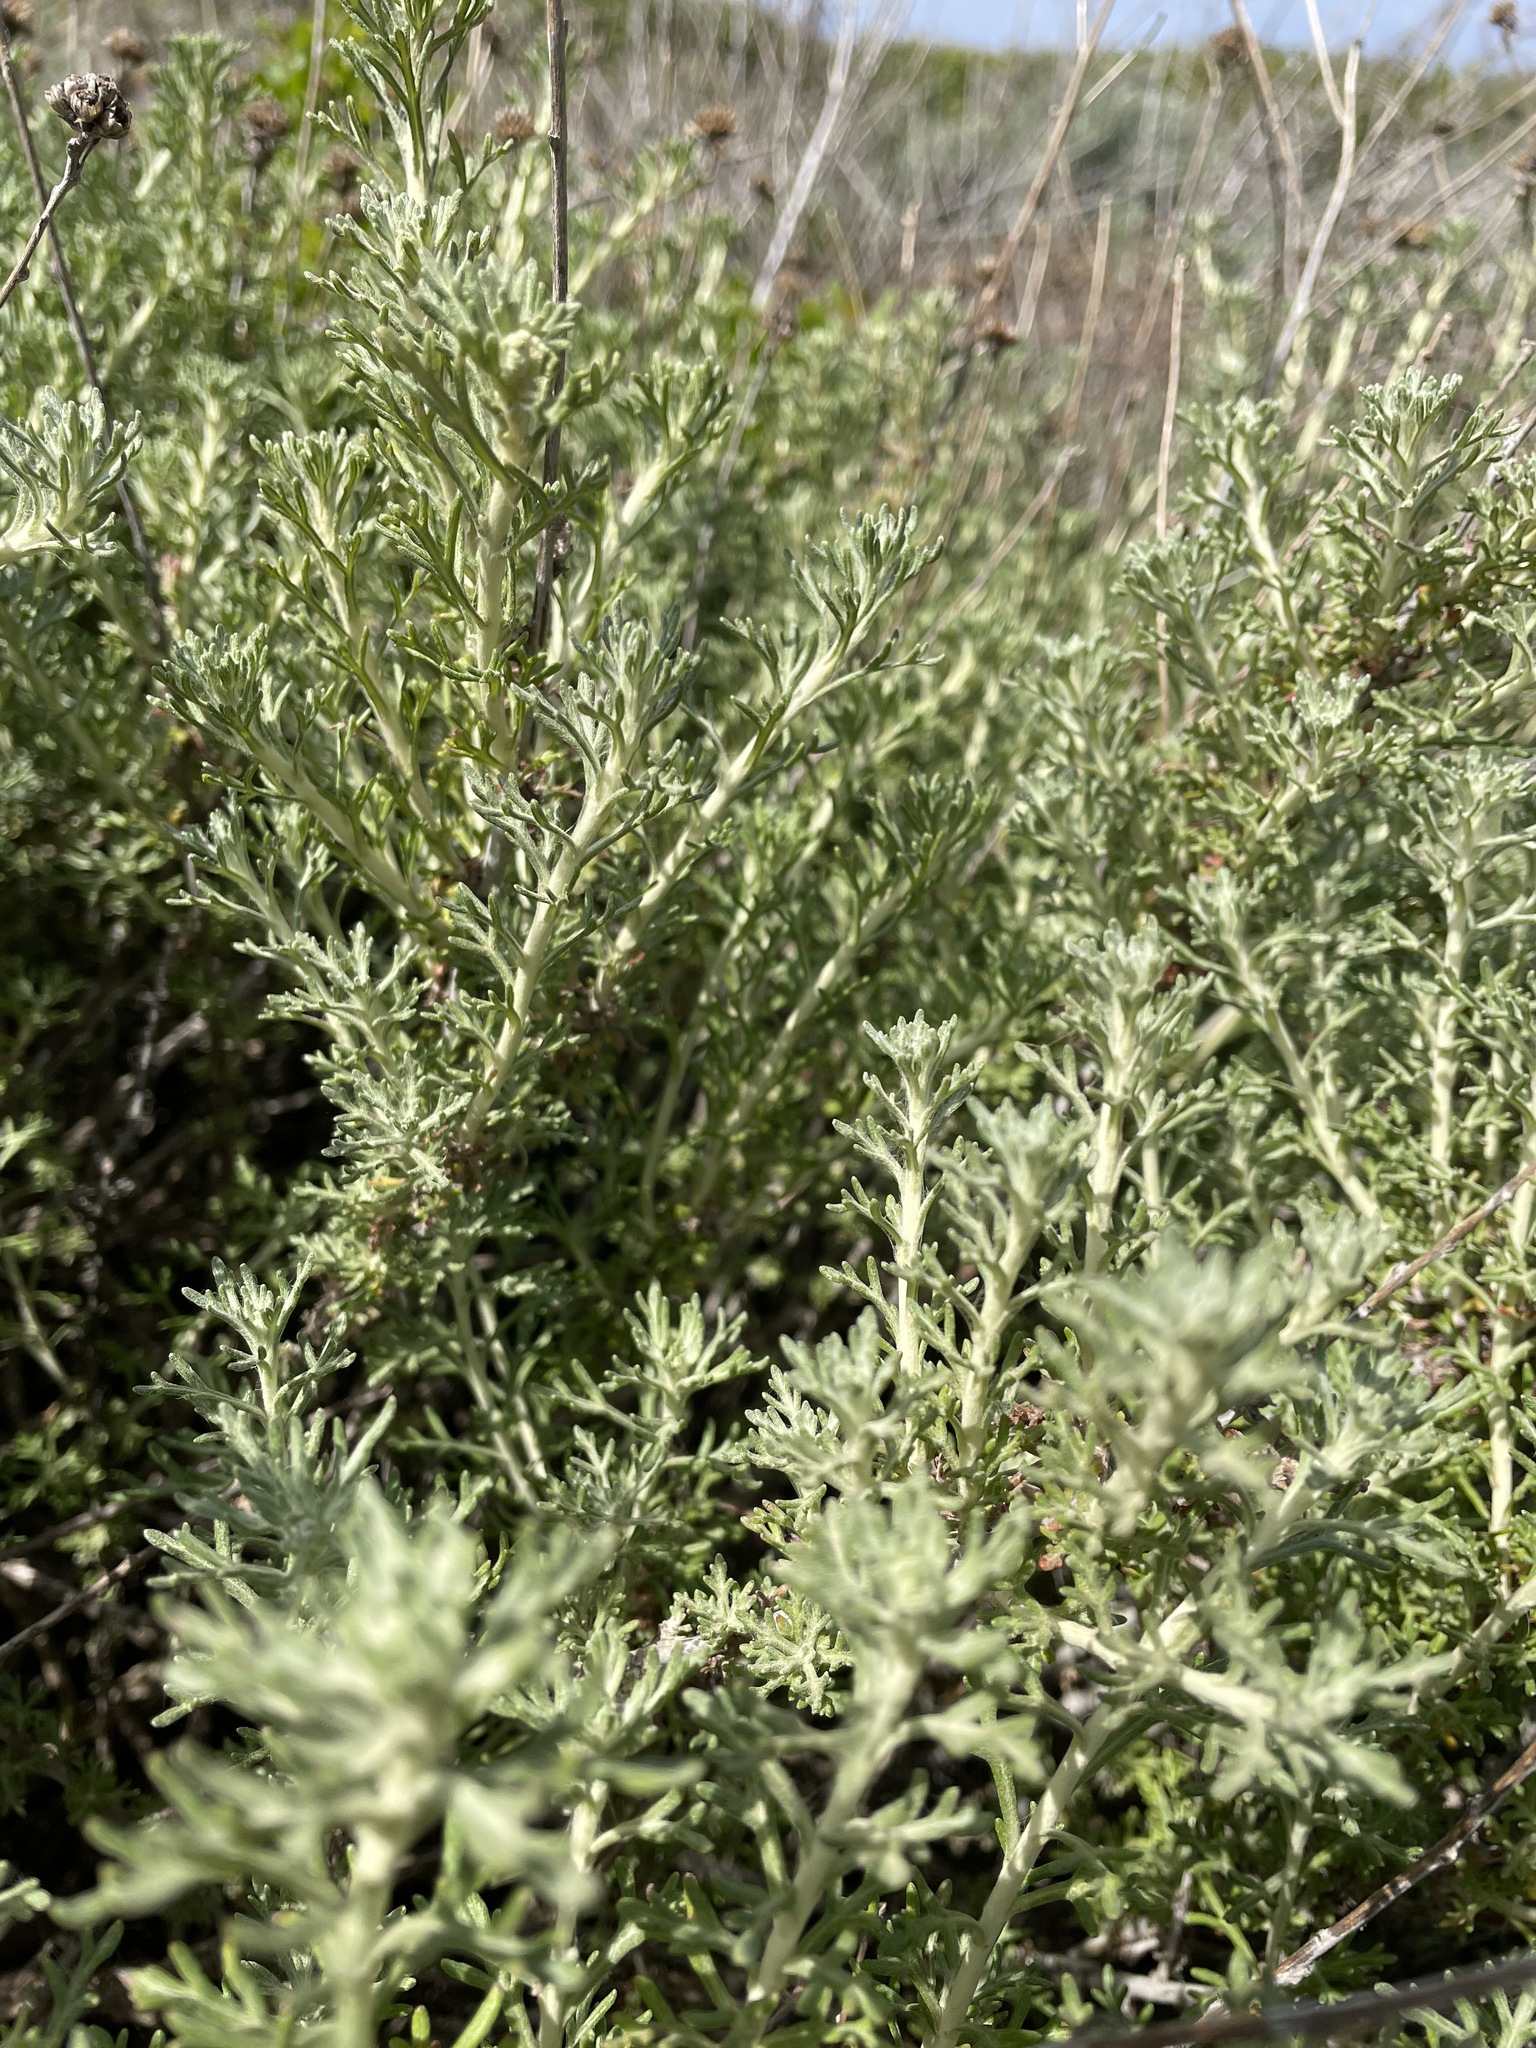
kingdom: Plantae
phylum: Tracheophyta
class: Magnoliopsida
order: Asterales
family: Asteraceae
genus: Eriophyllum
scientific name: Eriophyllum confertiflorum
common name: Golden-yarrow
